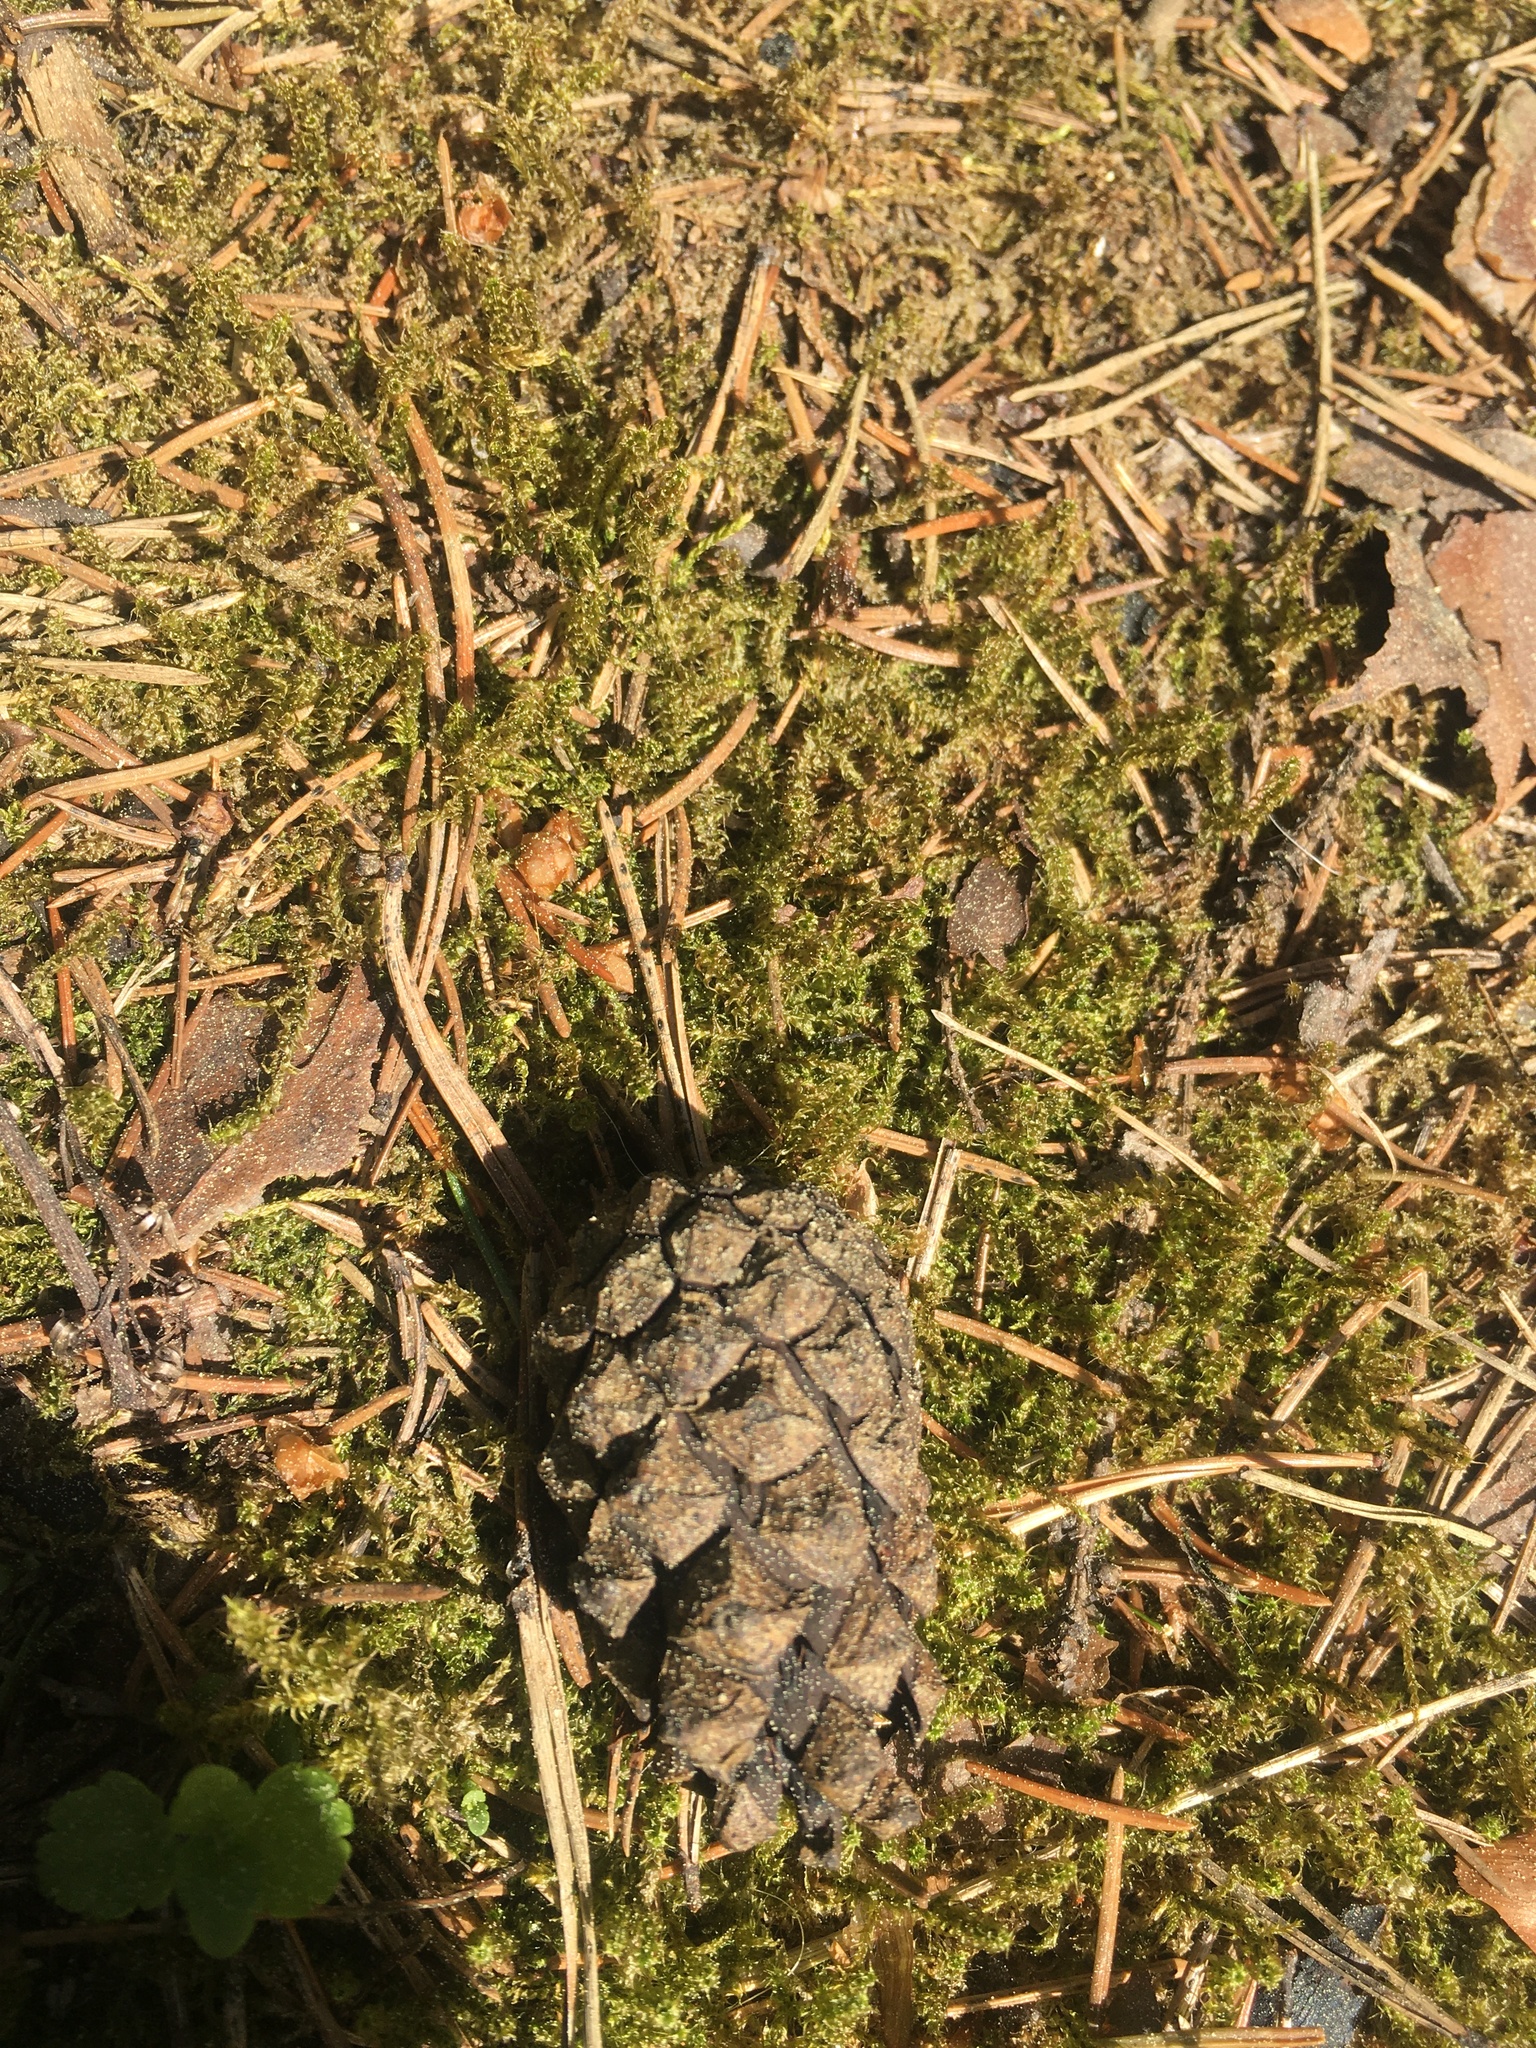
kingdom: Plantae
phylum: Tracheophyta
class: Pinopsida
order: Pinales
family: Pinaceae
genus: Pinus
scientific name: Pinus sylvestris
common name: Scots pine
